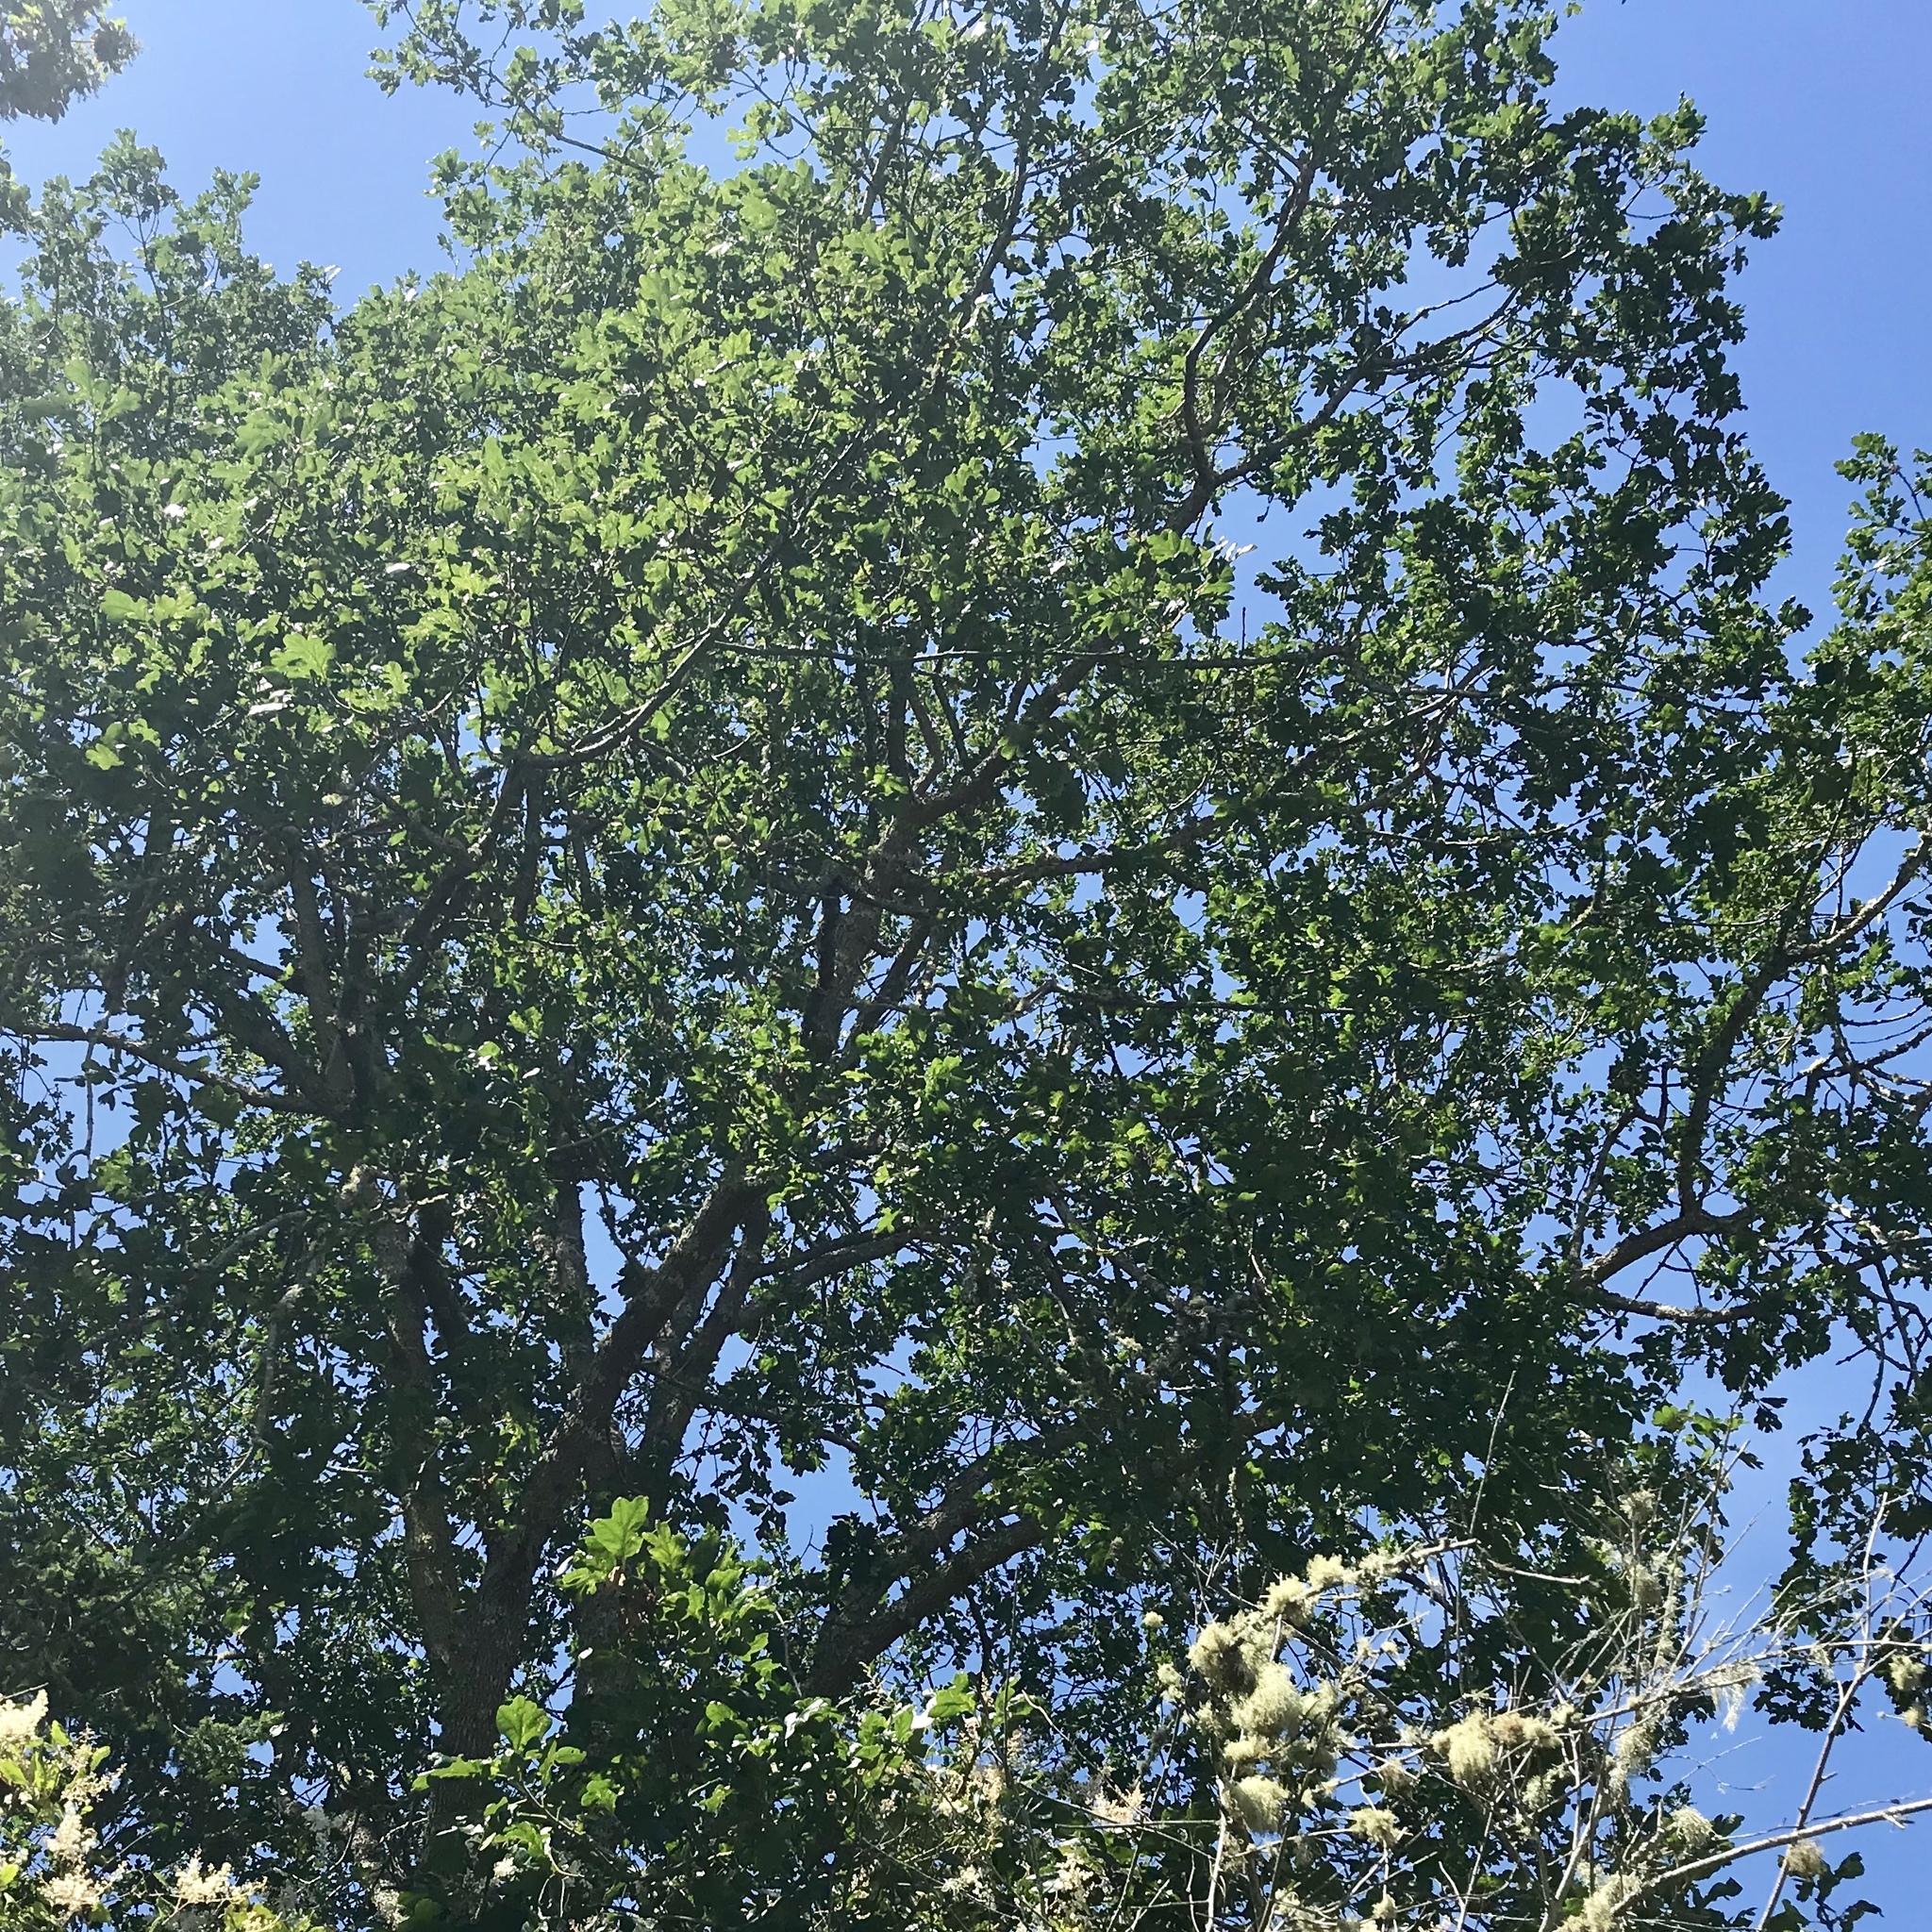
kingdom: Plantae
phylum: Tracheophyta
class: Magnoliopsida
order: Fagales
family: Fagaceae
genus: Quercus
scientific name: Quercus garryana
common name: Garry oak
